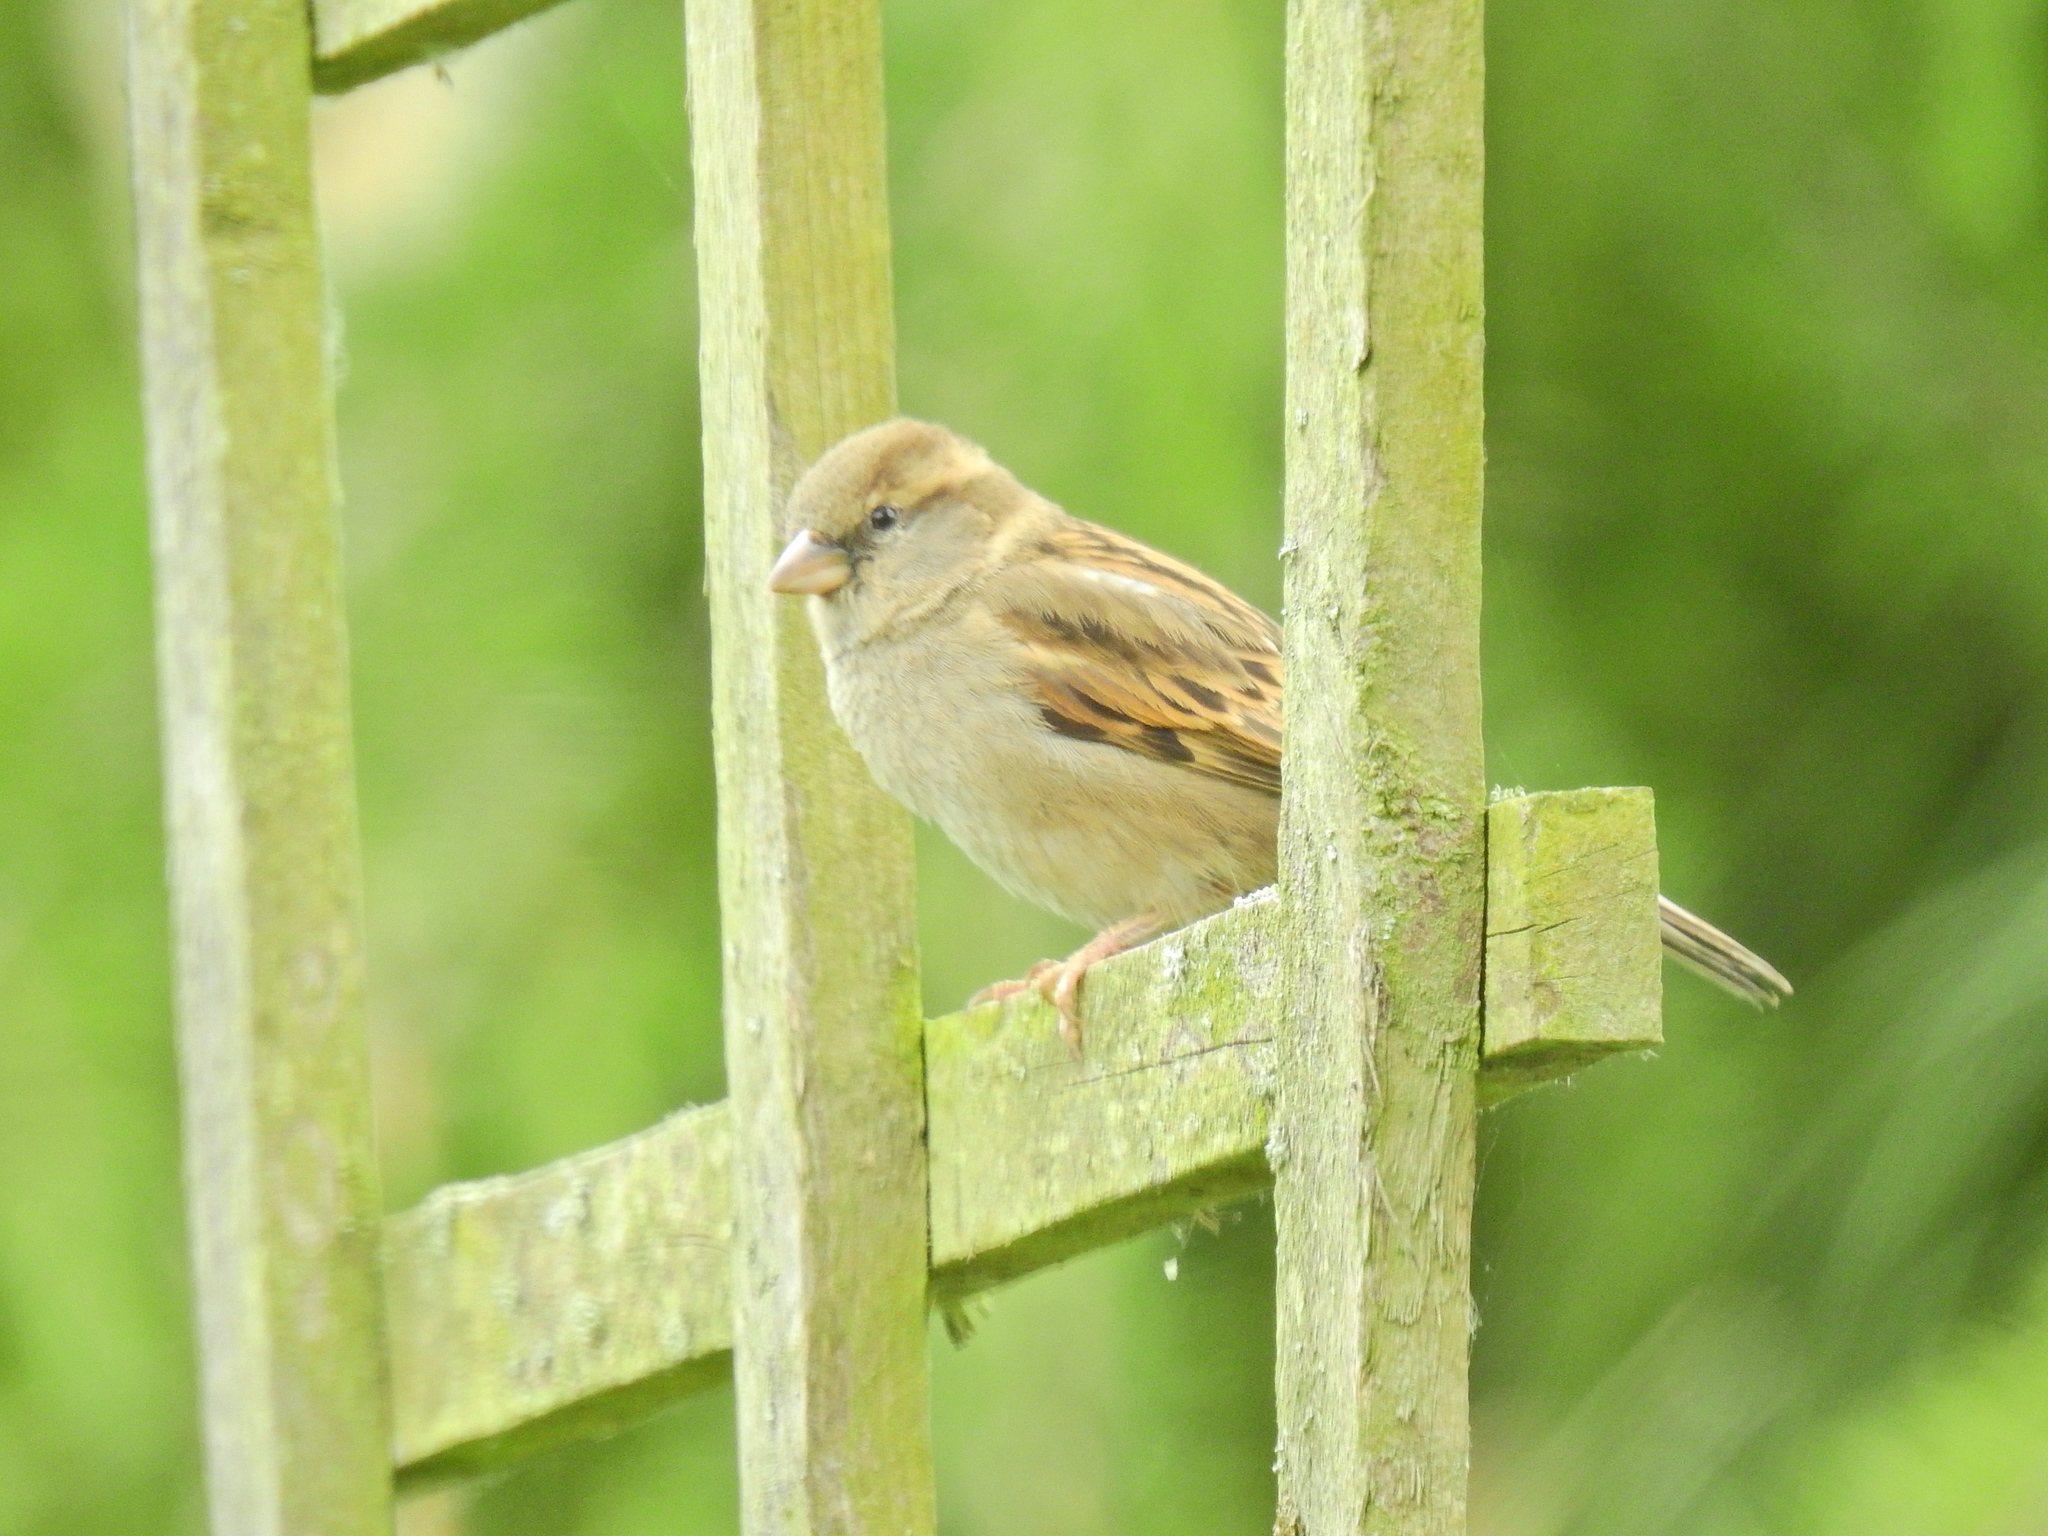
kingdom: Animalia
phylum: Chordata
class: Aves
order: Passeriformes
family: Passeridae
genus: Passer
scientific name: Passer domesticus
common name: House sparrow
